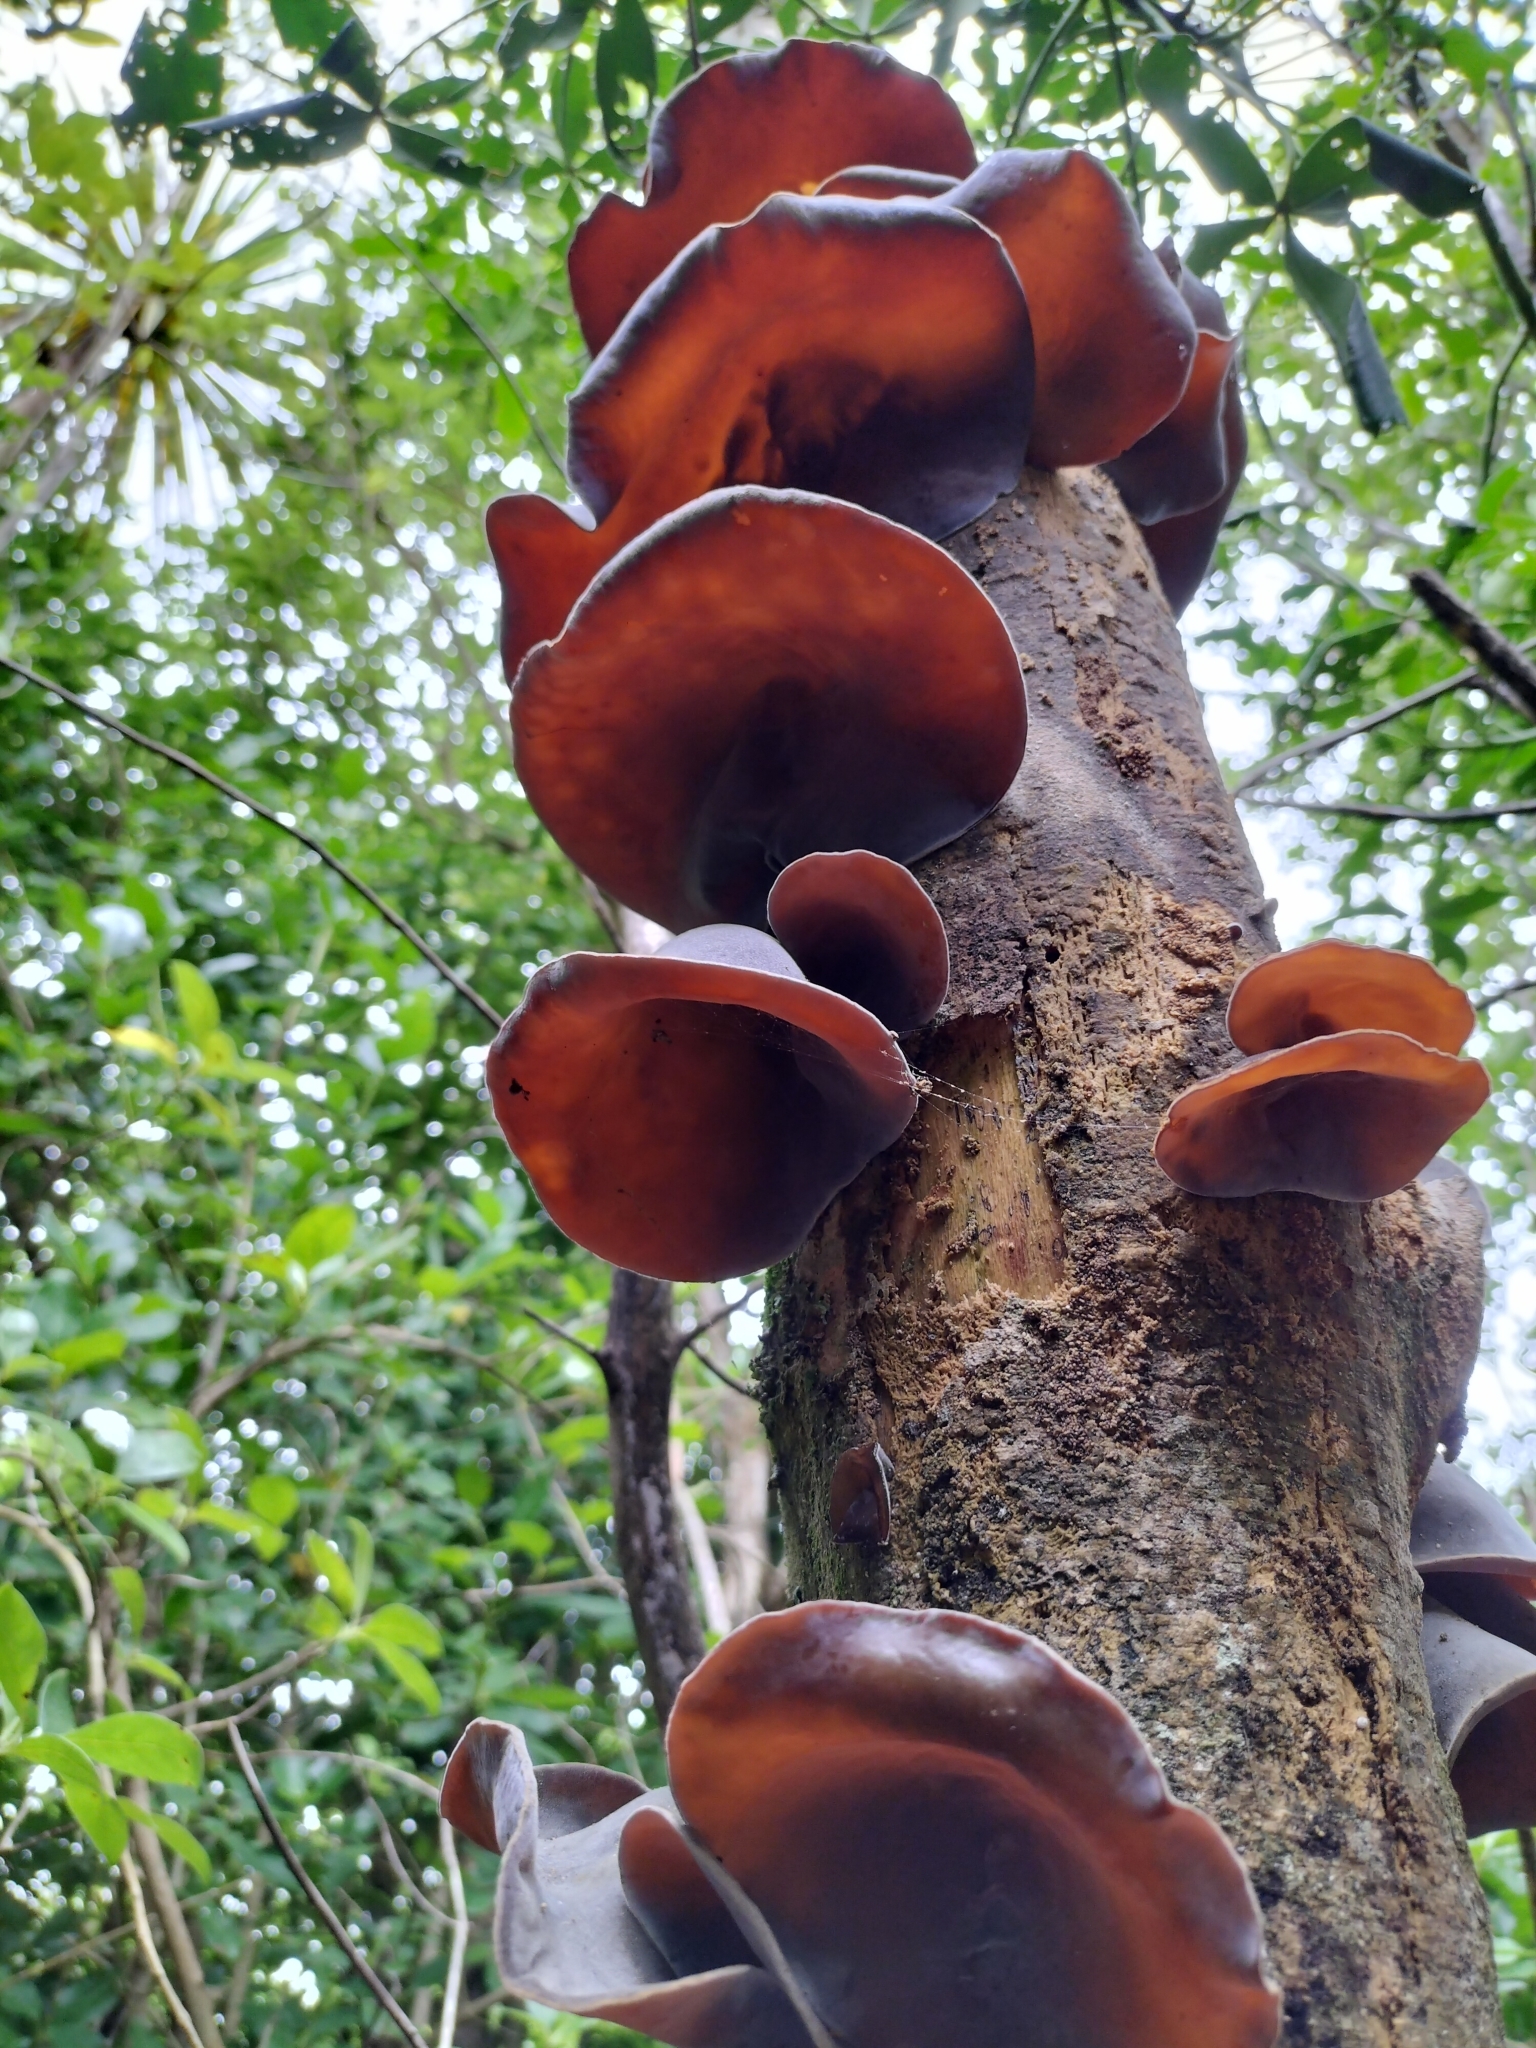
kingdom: Fungi
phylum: Basidiomycota
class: Agaricomycetes
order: Auriculariales
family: Auriculariaceae
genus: Auricularia
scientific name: Auricularia cornea
